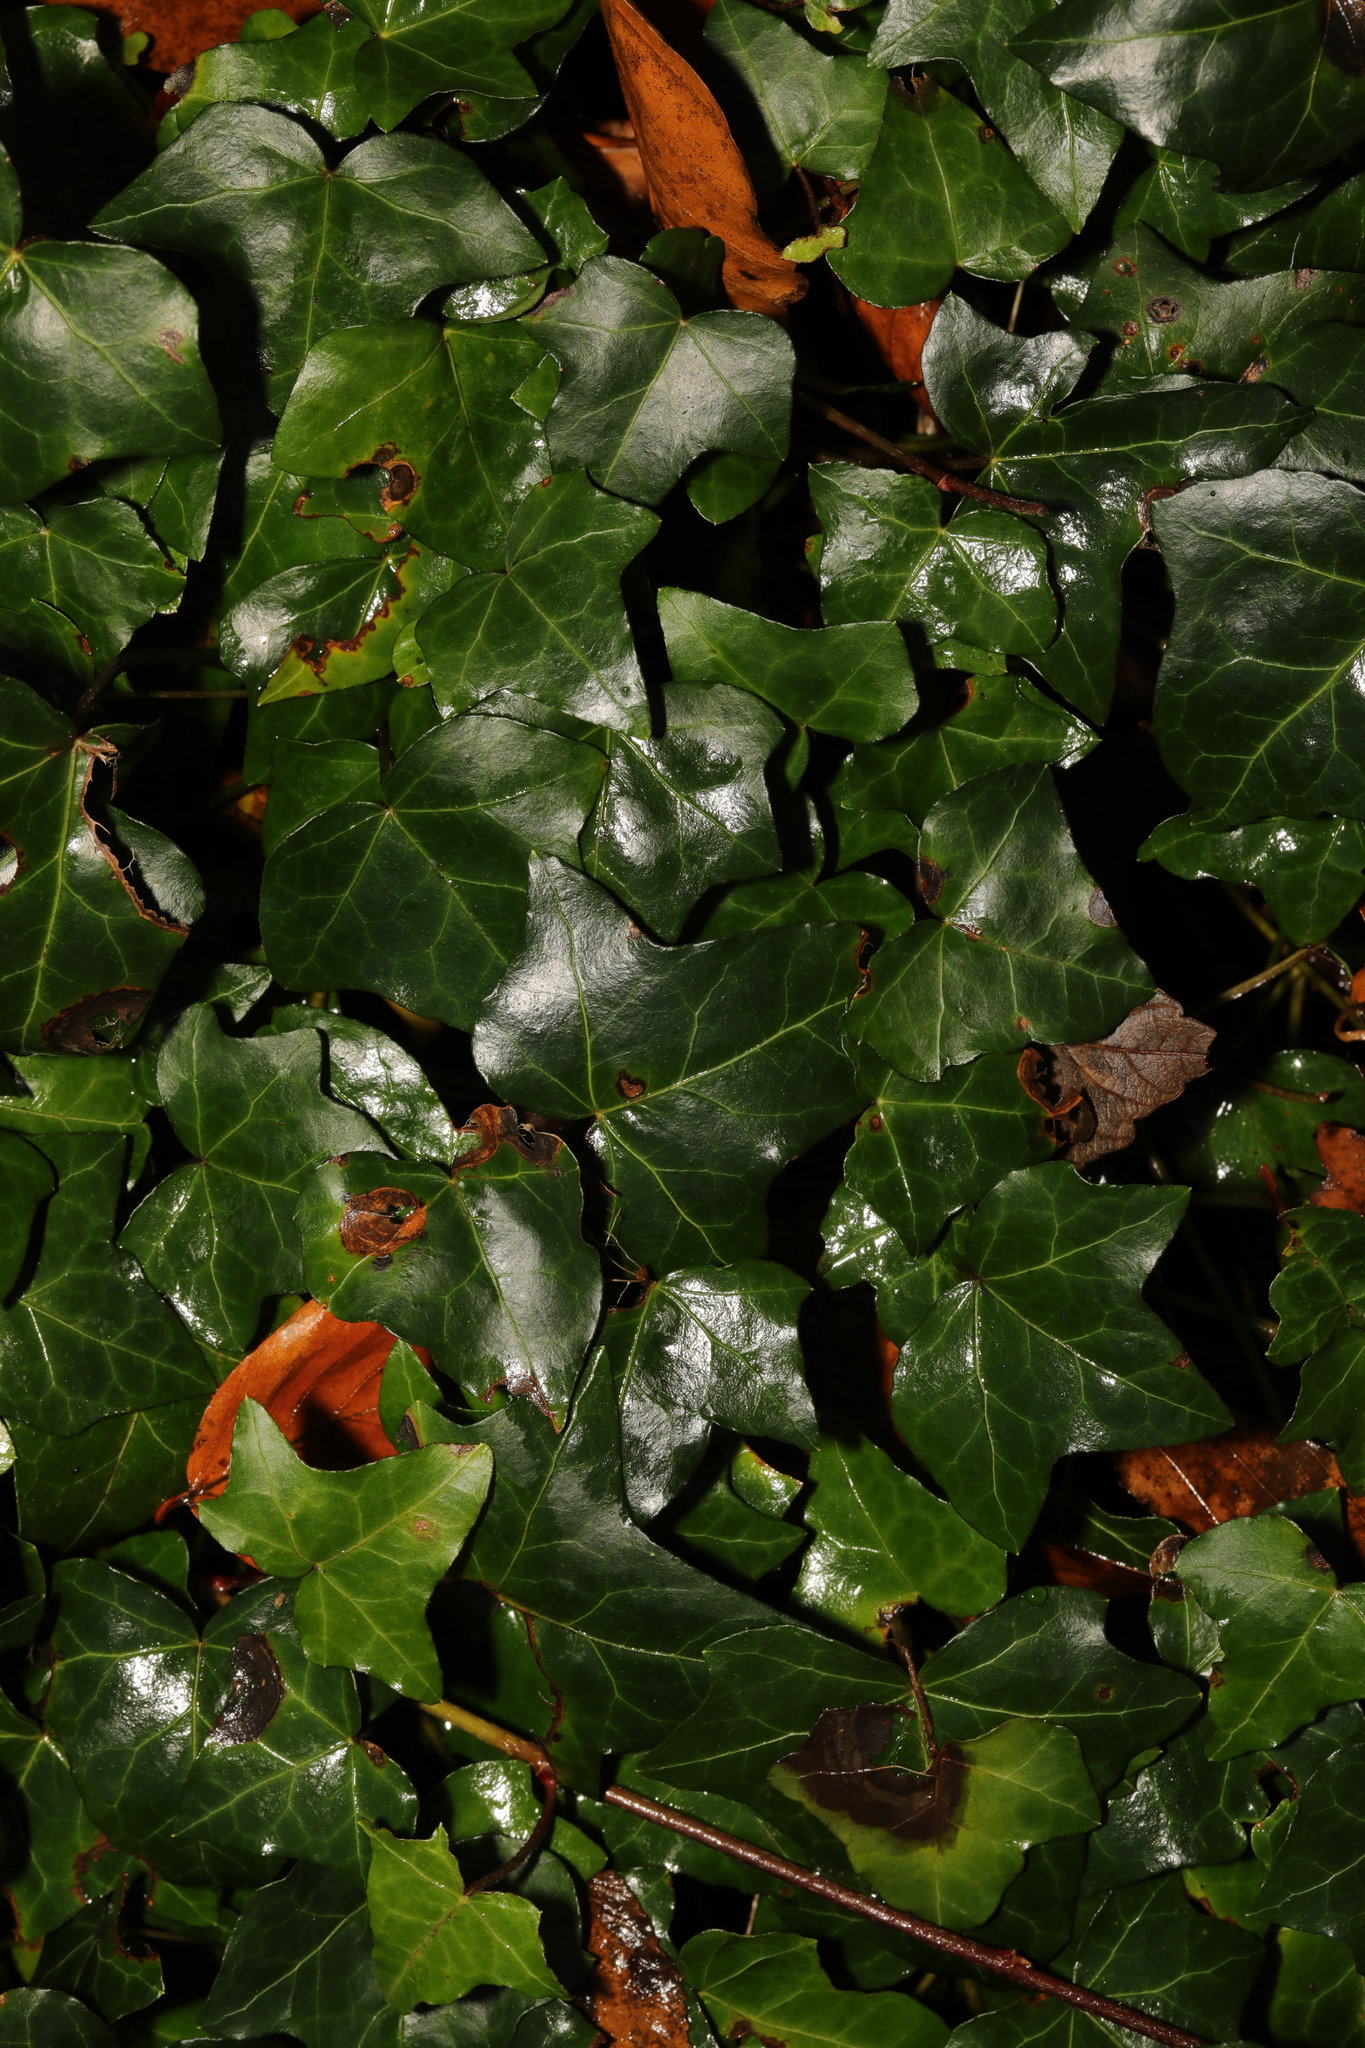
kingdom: Plantae
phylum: Tracheophyta
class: Magnoliopsida
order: Apiales
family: Araliaceae
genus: Hedera
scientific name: Hedera helix
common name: Ivy
